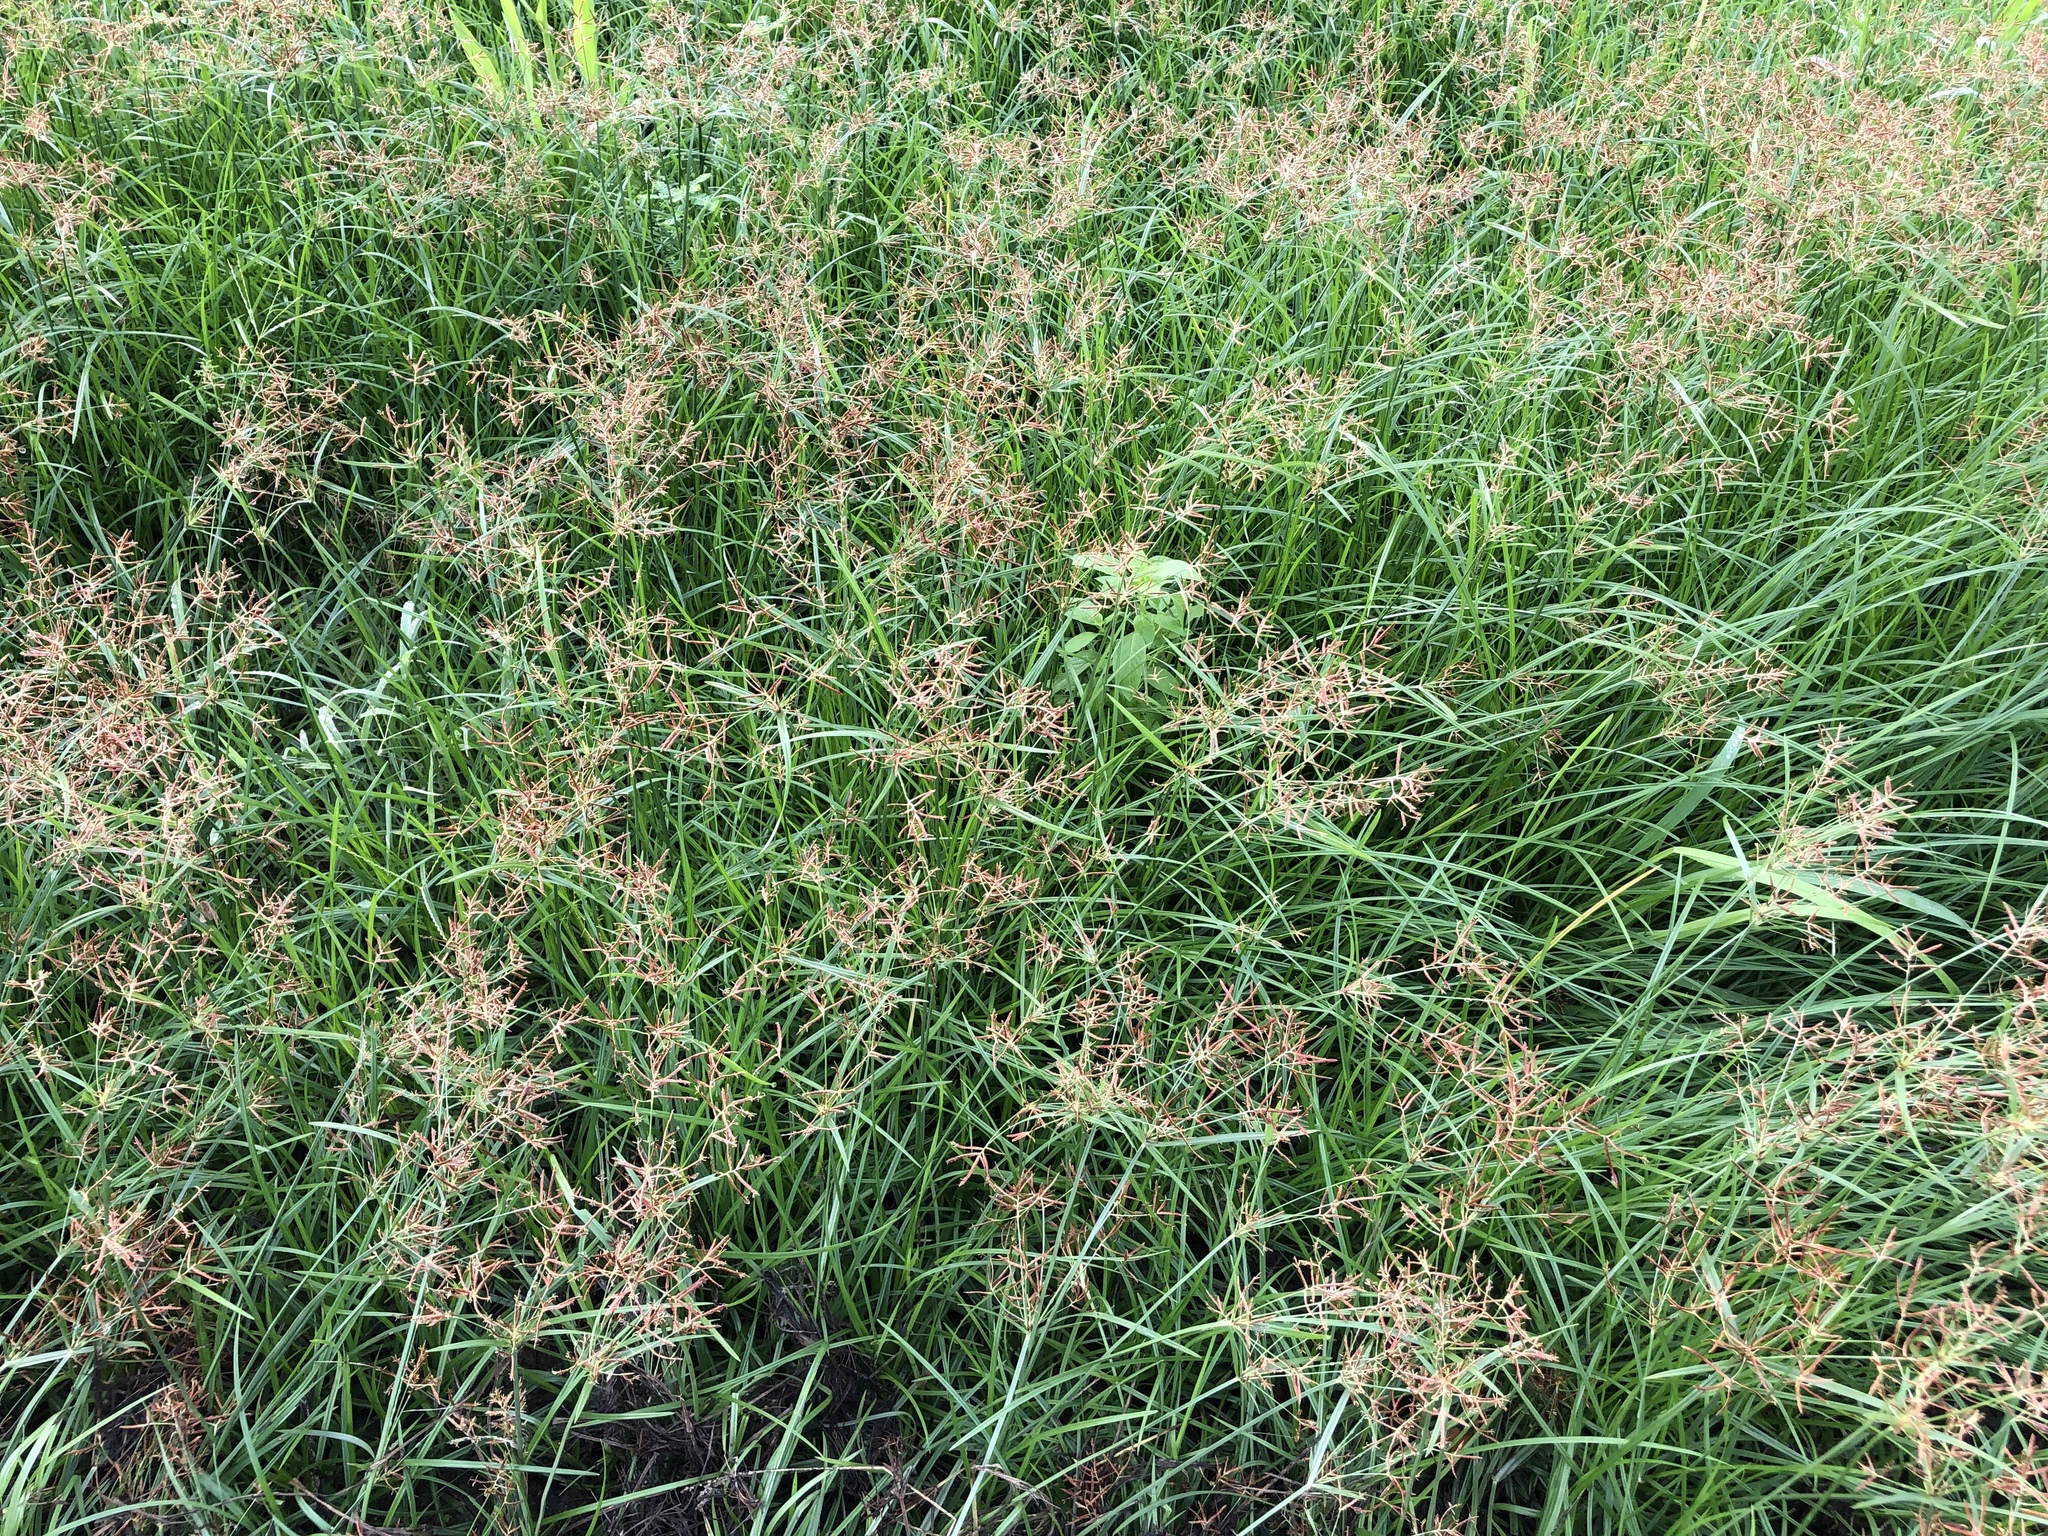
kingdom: Plantae
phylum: Tracheophyta
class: Liliopsida
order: Poales
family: Cyperaceae
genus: Cyperus
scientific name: Cyperus rotundus
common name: Nutgrass
